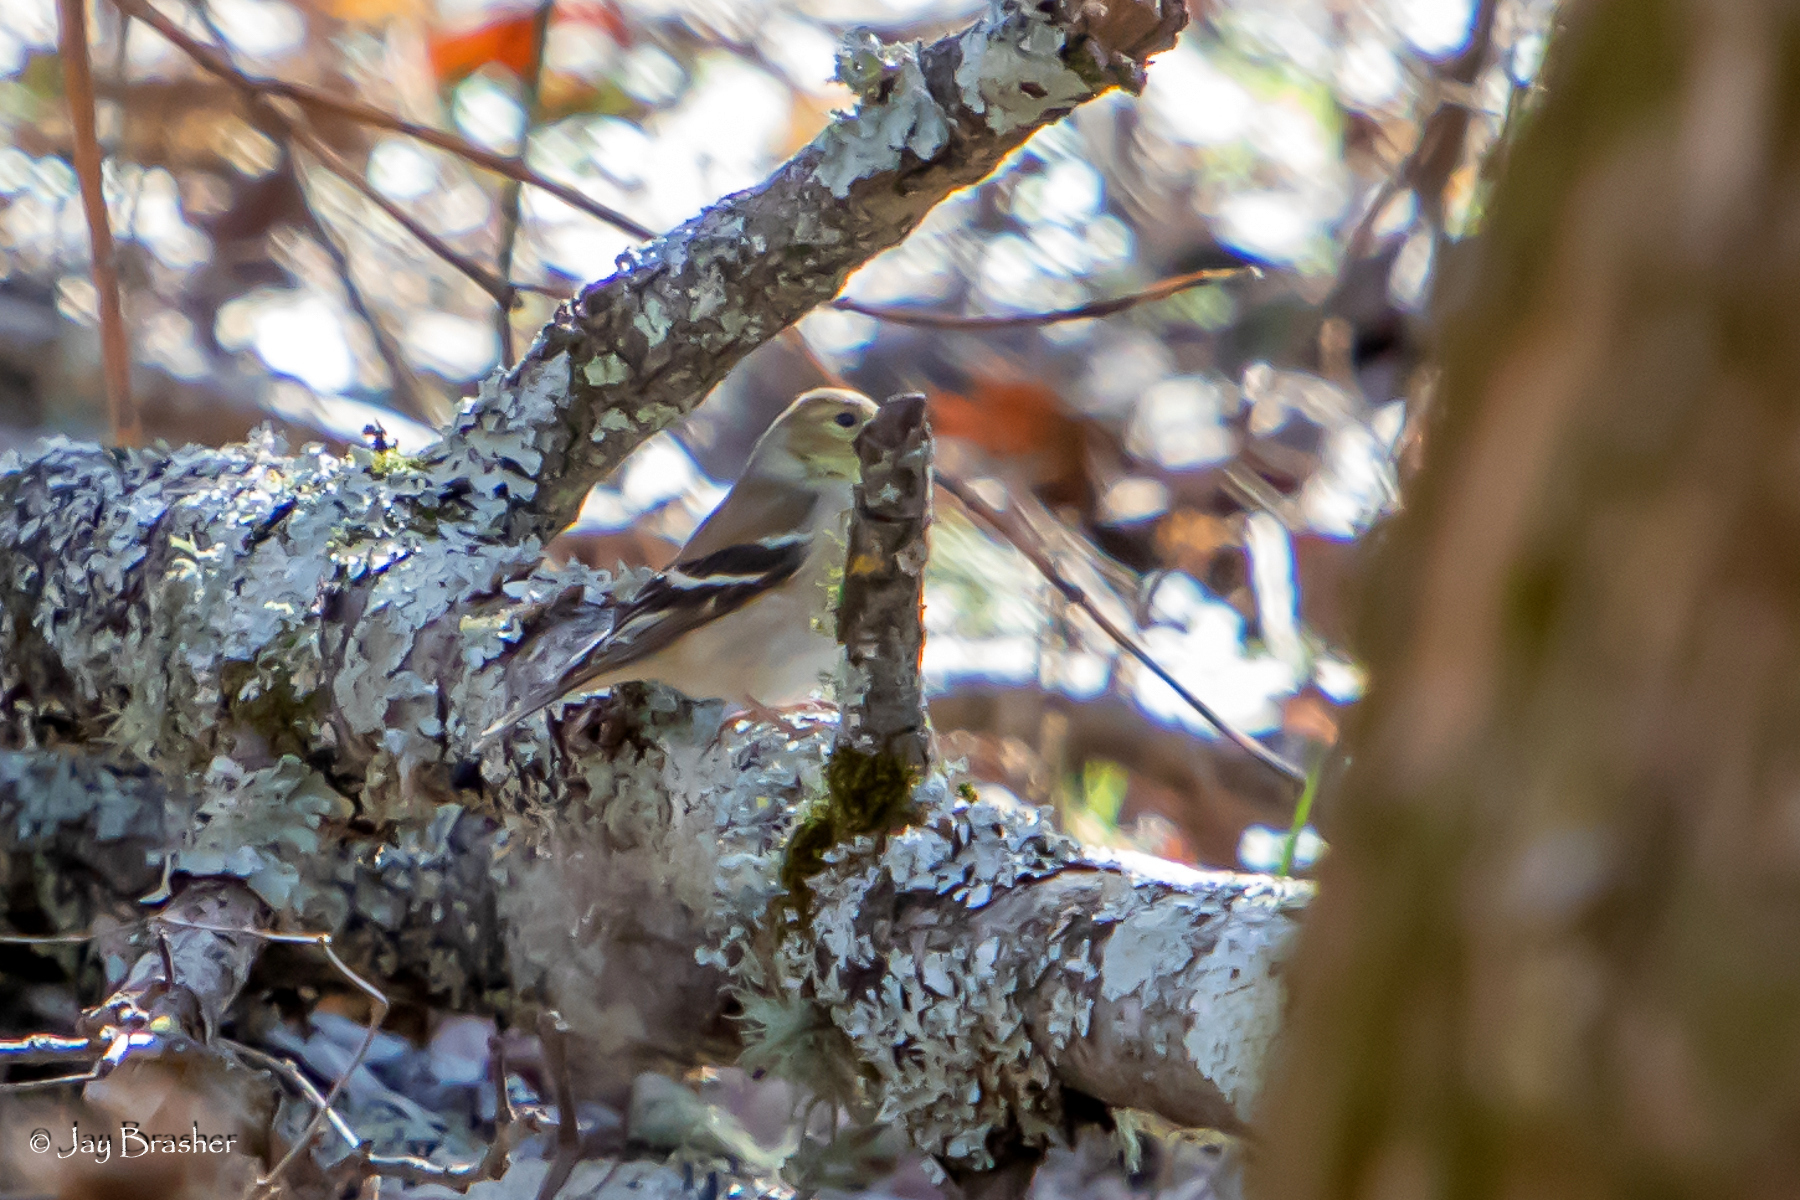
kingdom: Animalia
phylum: Chordata
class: Aves
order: Passeriformes
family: Fringillidae
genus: Spinus
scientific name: Spinus tristis
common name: American goldfinch
